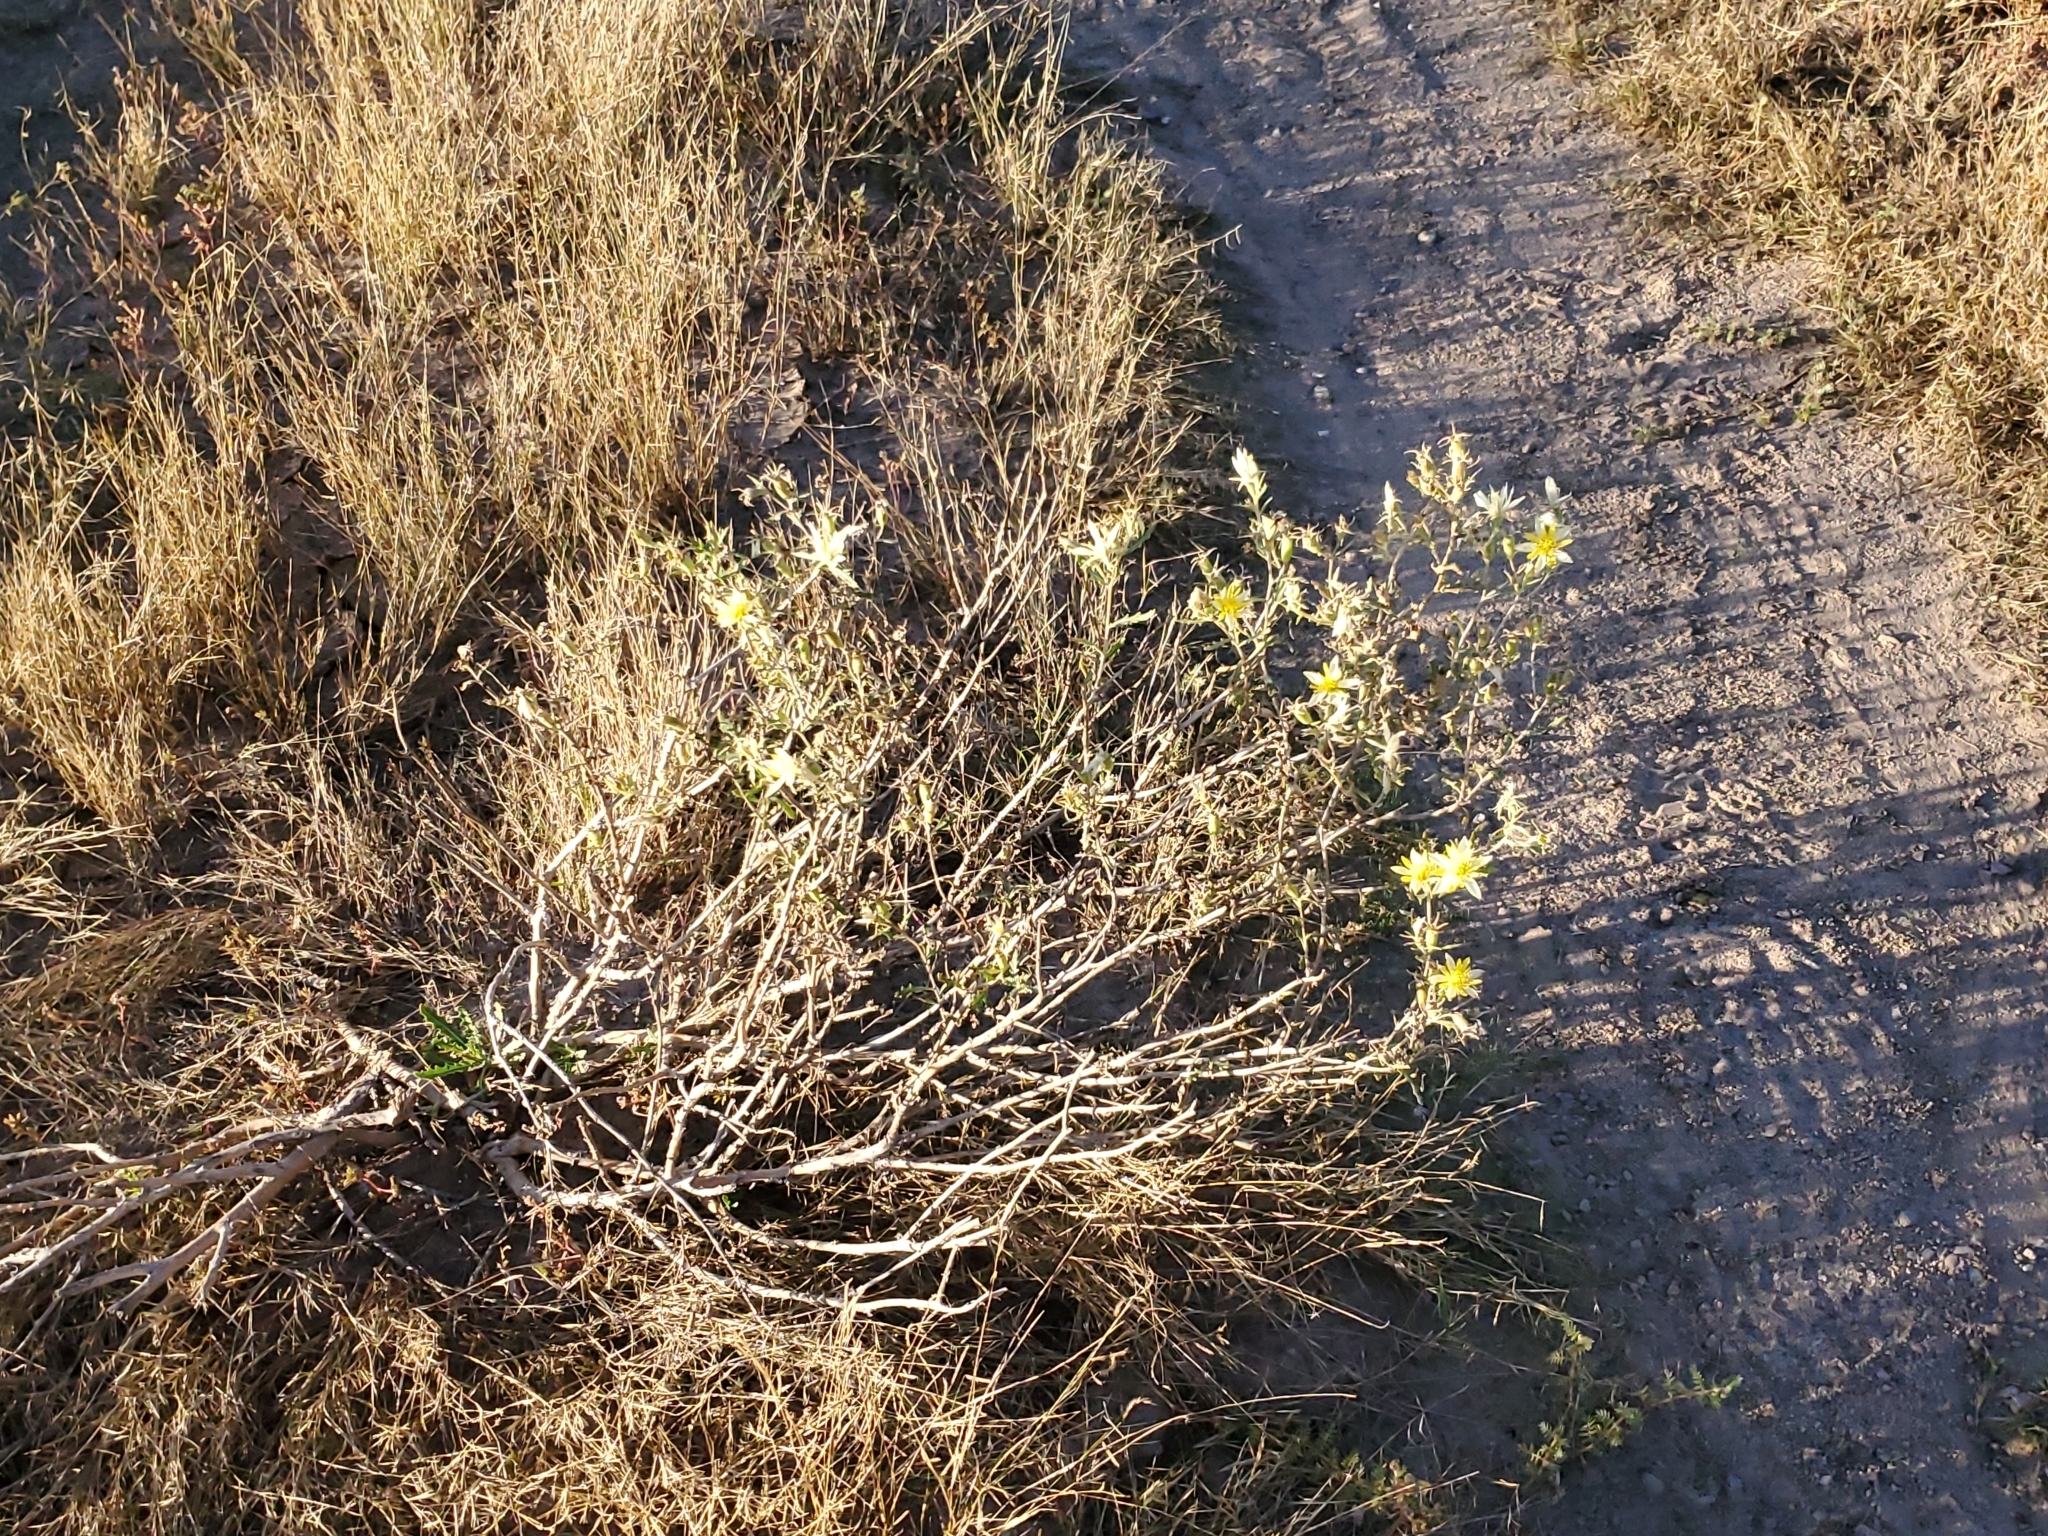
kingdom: Plantae
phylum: Tracheophyta
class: Magnoliopsida
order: Cornales
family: Loasaceae
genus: Mentzelia
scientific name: Mentzelia procera
